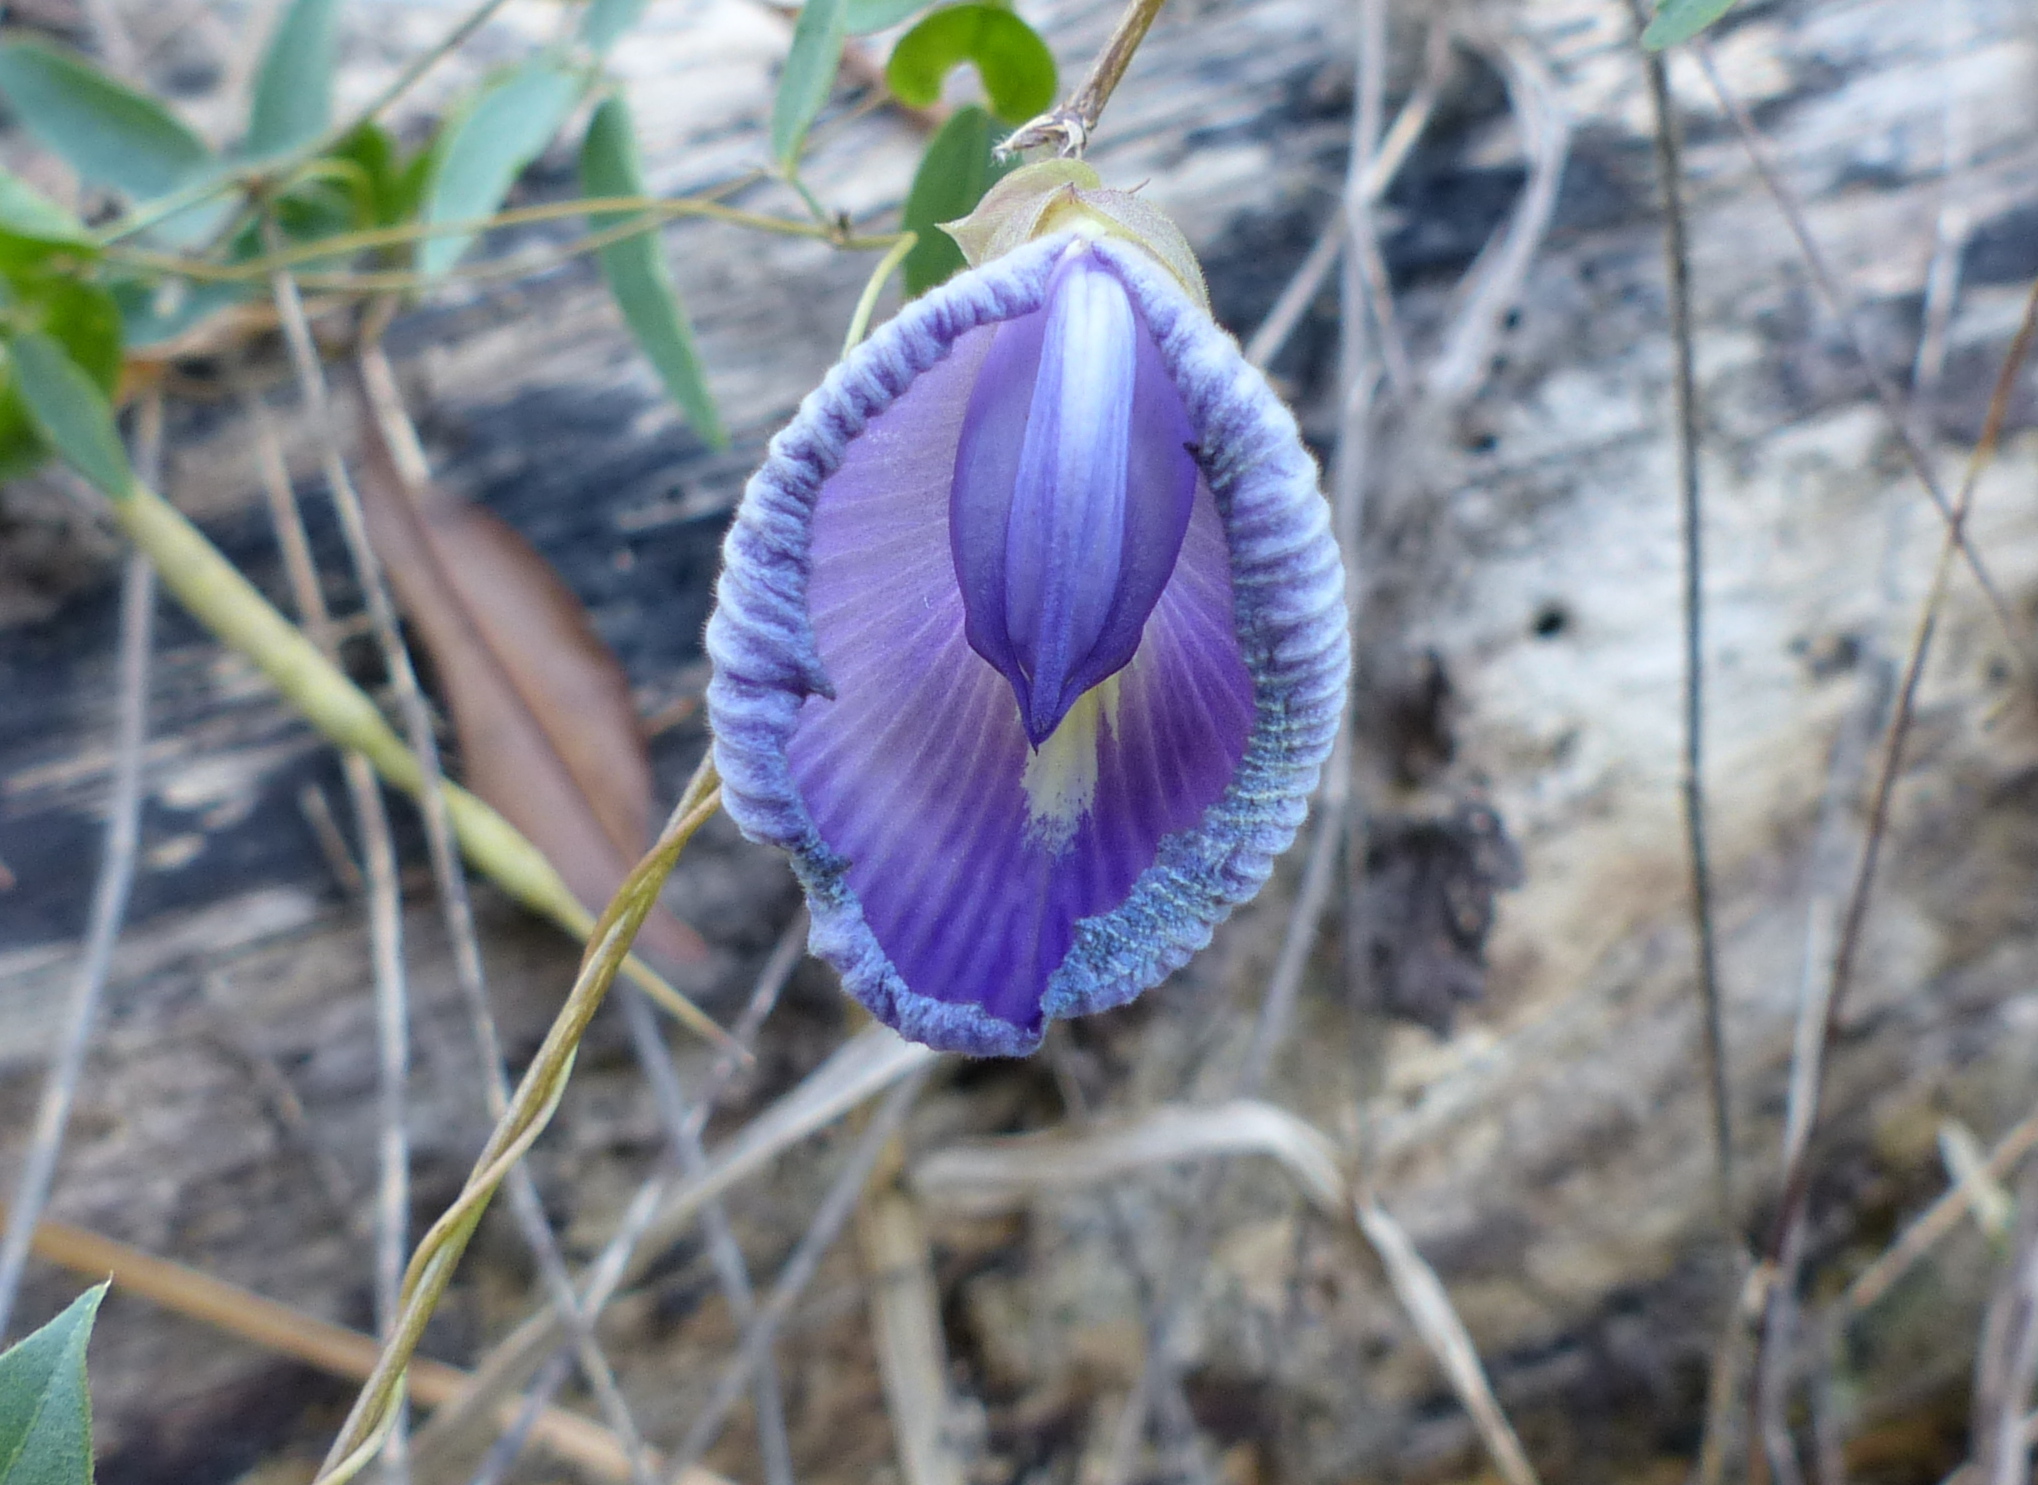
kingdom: Plantae
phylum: Tracheophyta
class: Magnoliopsida
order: Fabales
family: Fabaceae
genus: Centrosema
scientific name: Centrosema brasilianum
